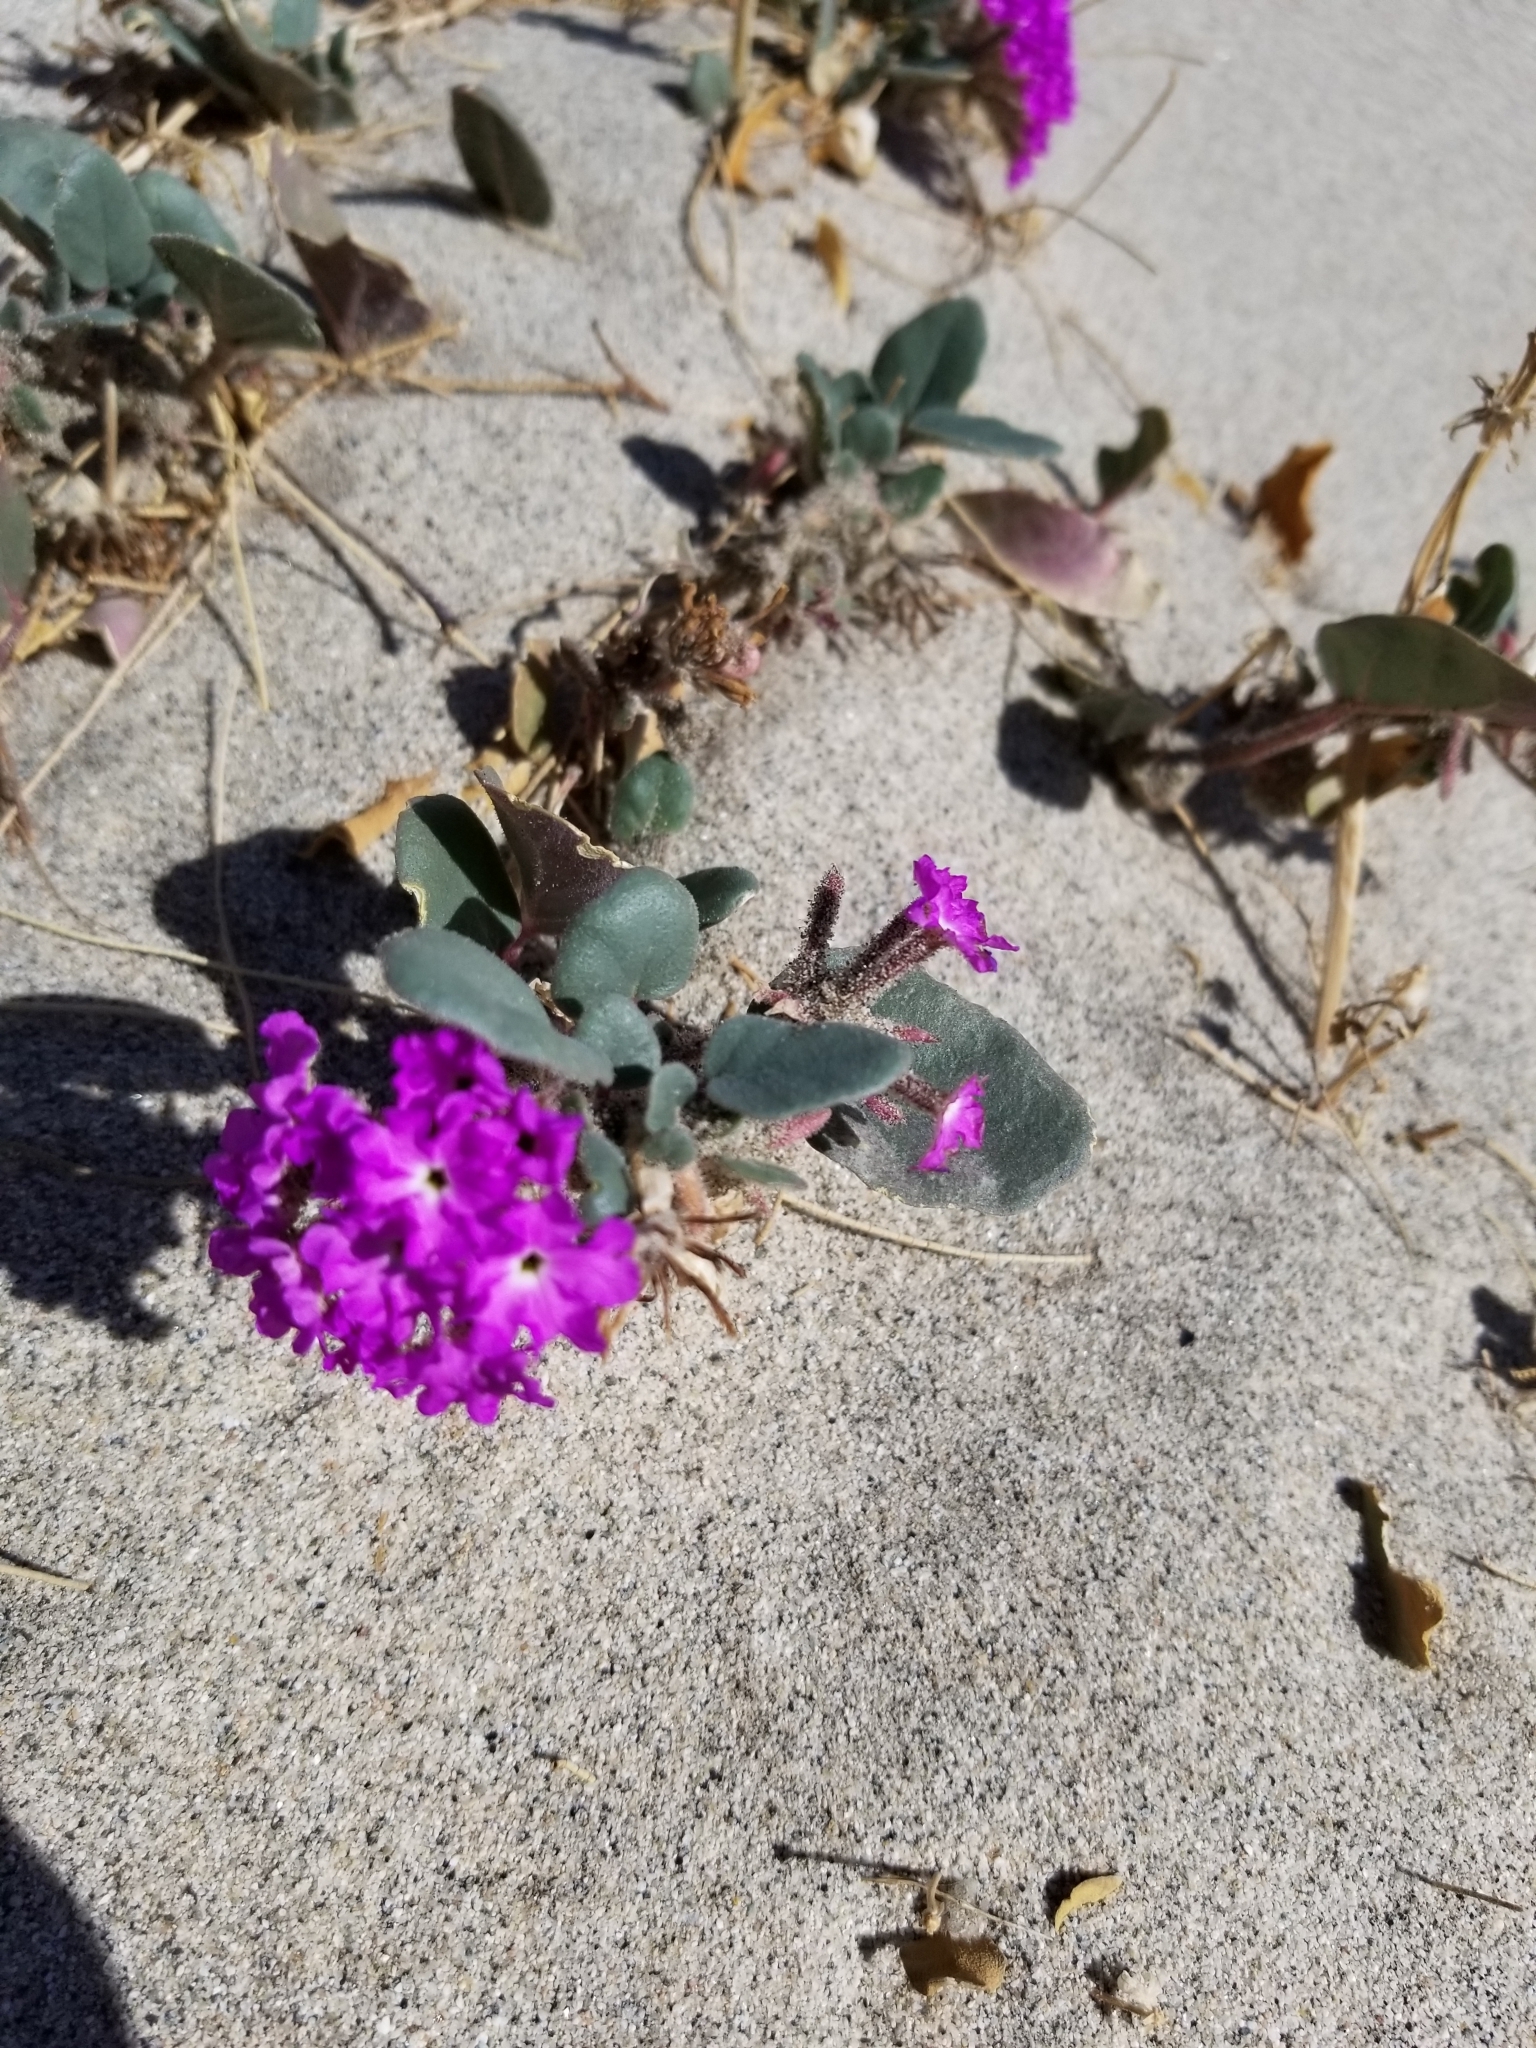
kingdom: Plantae
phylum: Tracheophyta
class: Magnoliopsida
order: Caryophyllales
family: Nyctaginaceae
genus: Abronia
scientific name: Abronia villosa
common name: Desert sand-verbena
